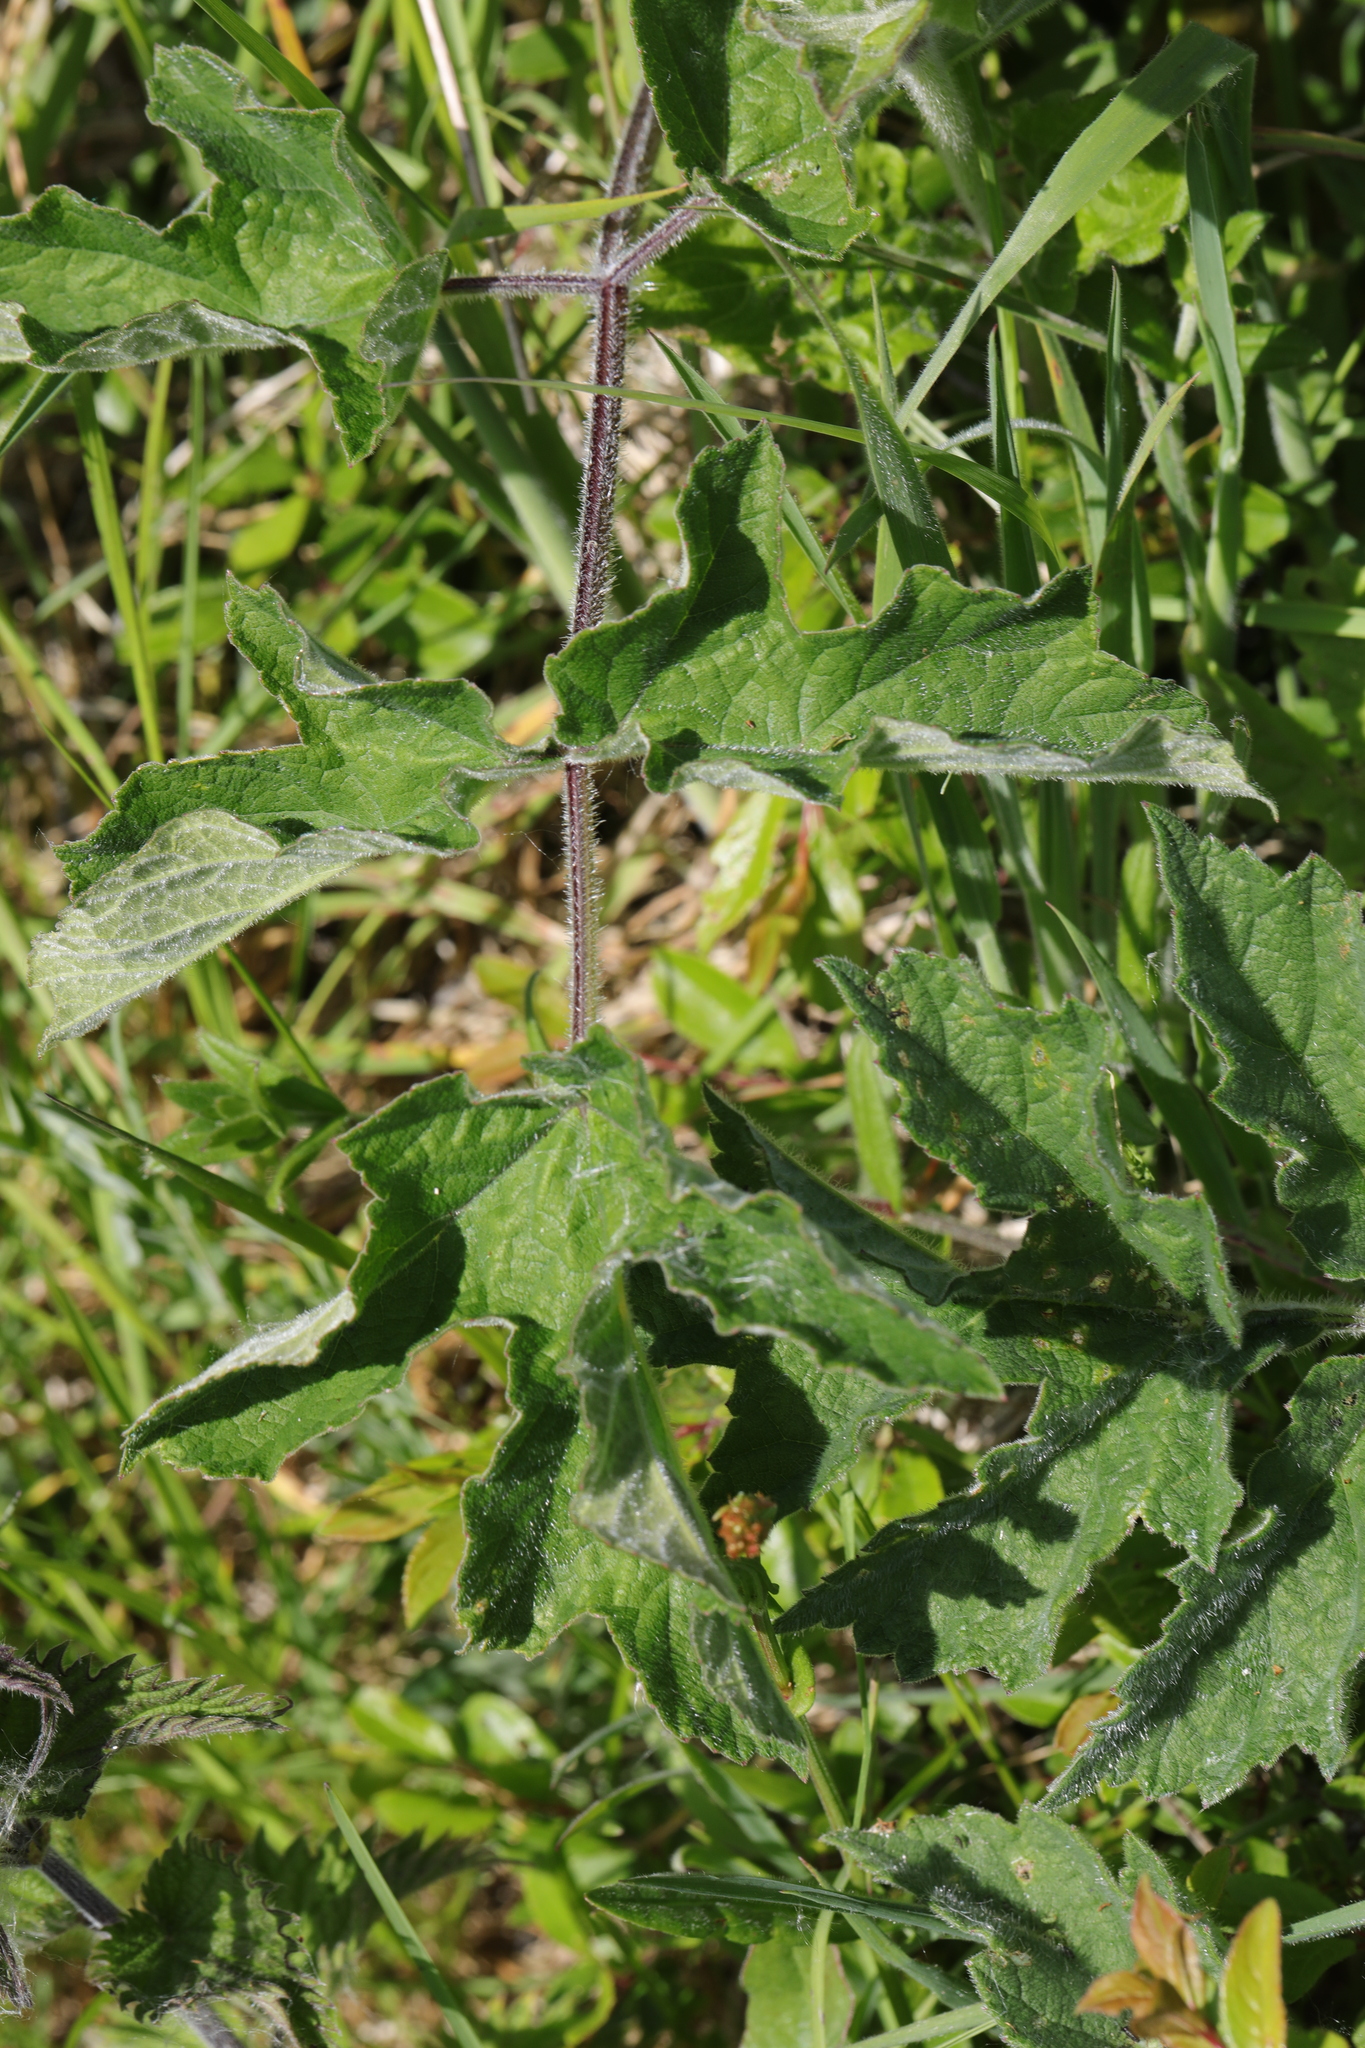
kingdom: Plantae
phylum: Tracheophyta
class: Magnoliopsida
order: Apiales
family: Apiaceae
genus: Heracleum
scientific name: Heracleum sphondylium
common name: Hogweed
